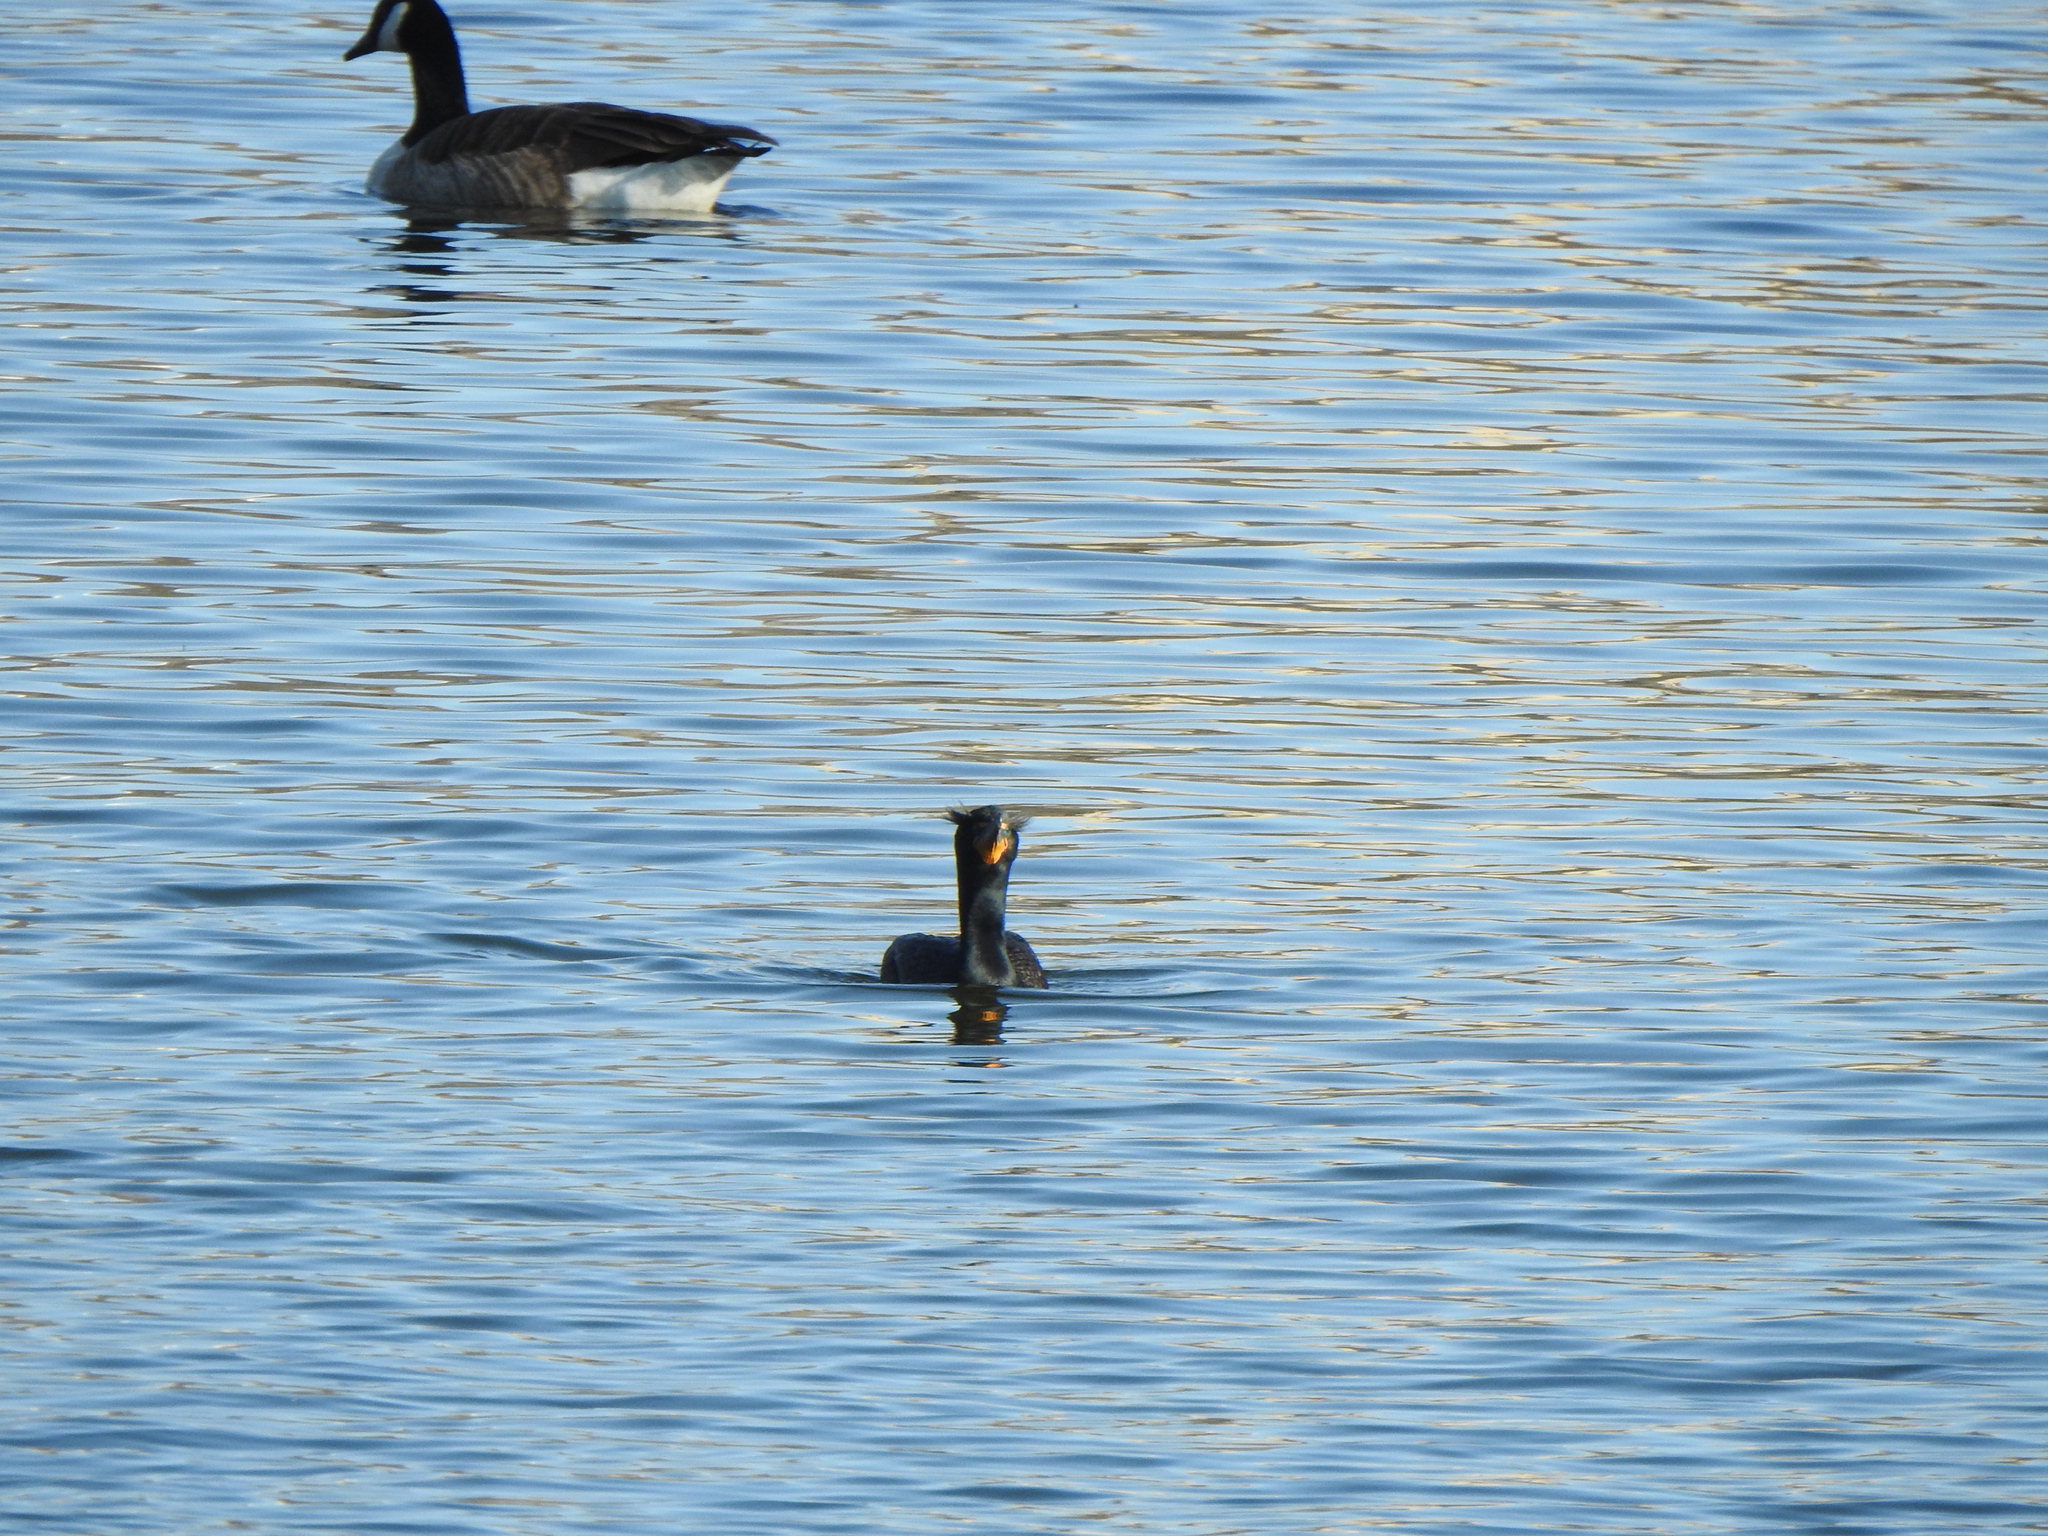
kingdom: Animalia
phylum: Chordata
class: Aves
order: Suliformes
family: Phalacrocoracidae
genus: Phalacrocorax
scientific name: Phalacrocorax auritus
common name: Double-crested cormorant
